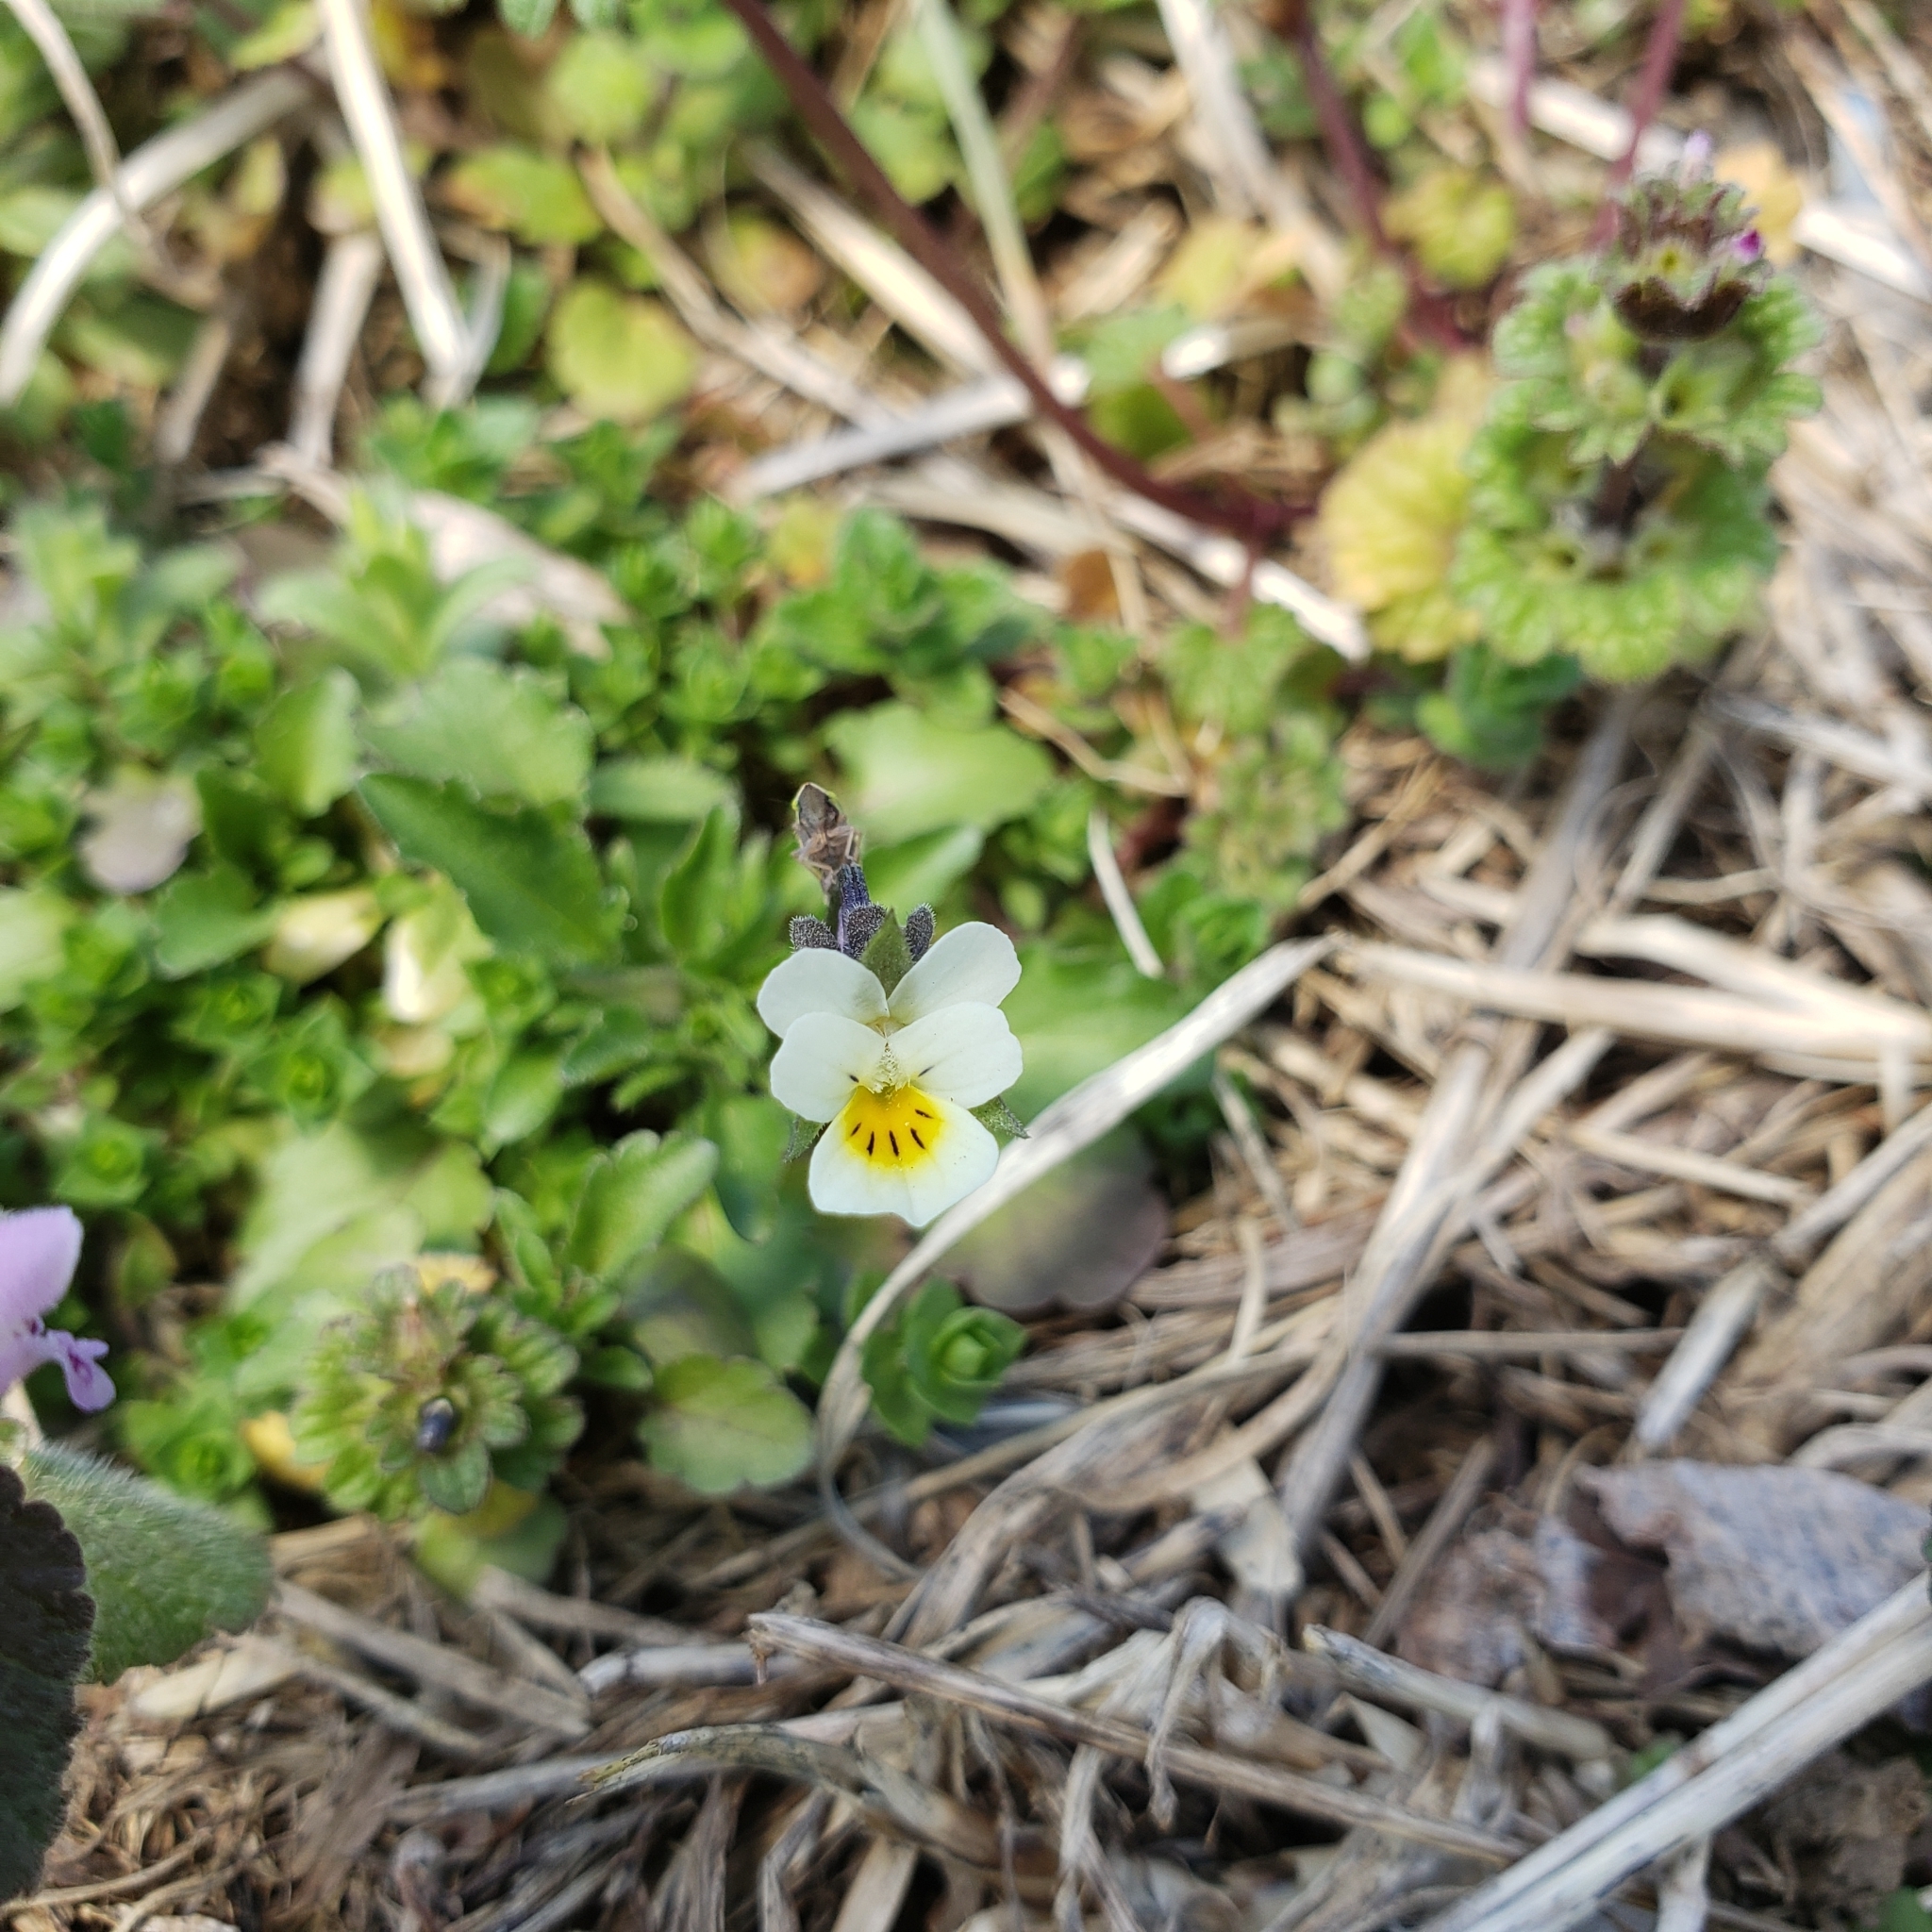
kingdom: Plantae
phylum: Tracheophyta
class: Magnoliopsida
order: Malpighiales
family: Violaceae
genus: Viola
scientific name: Viola rafinesquei
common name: American field pansy
